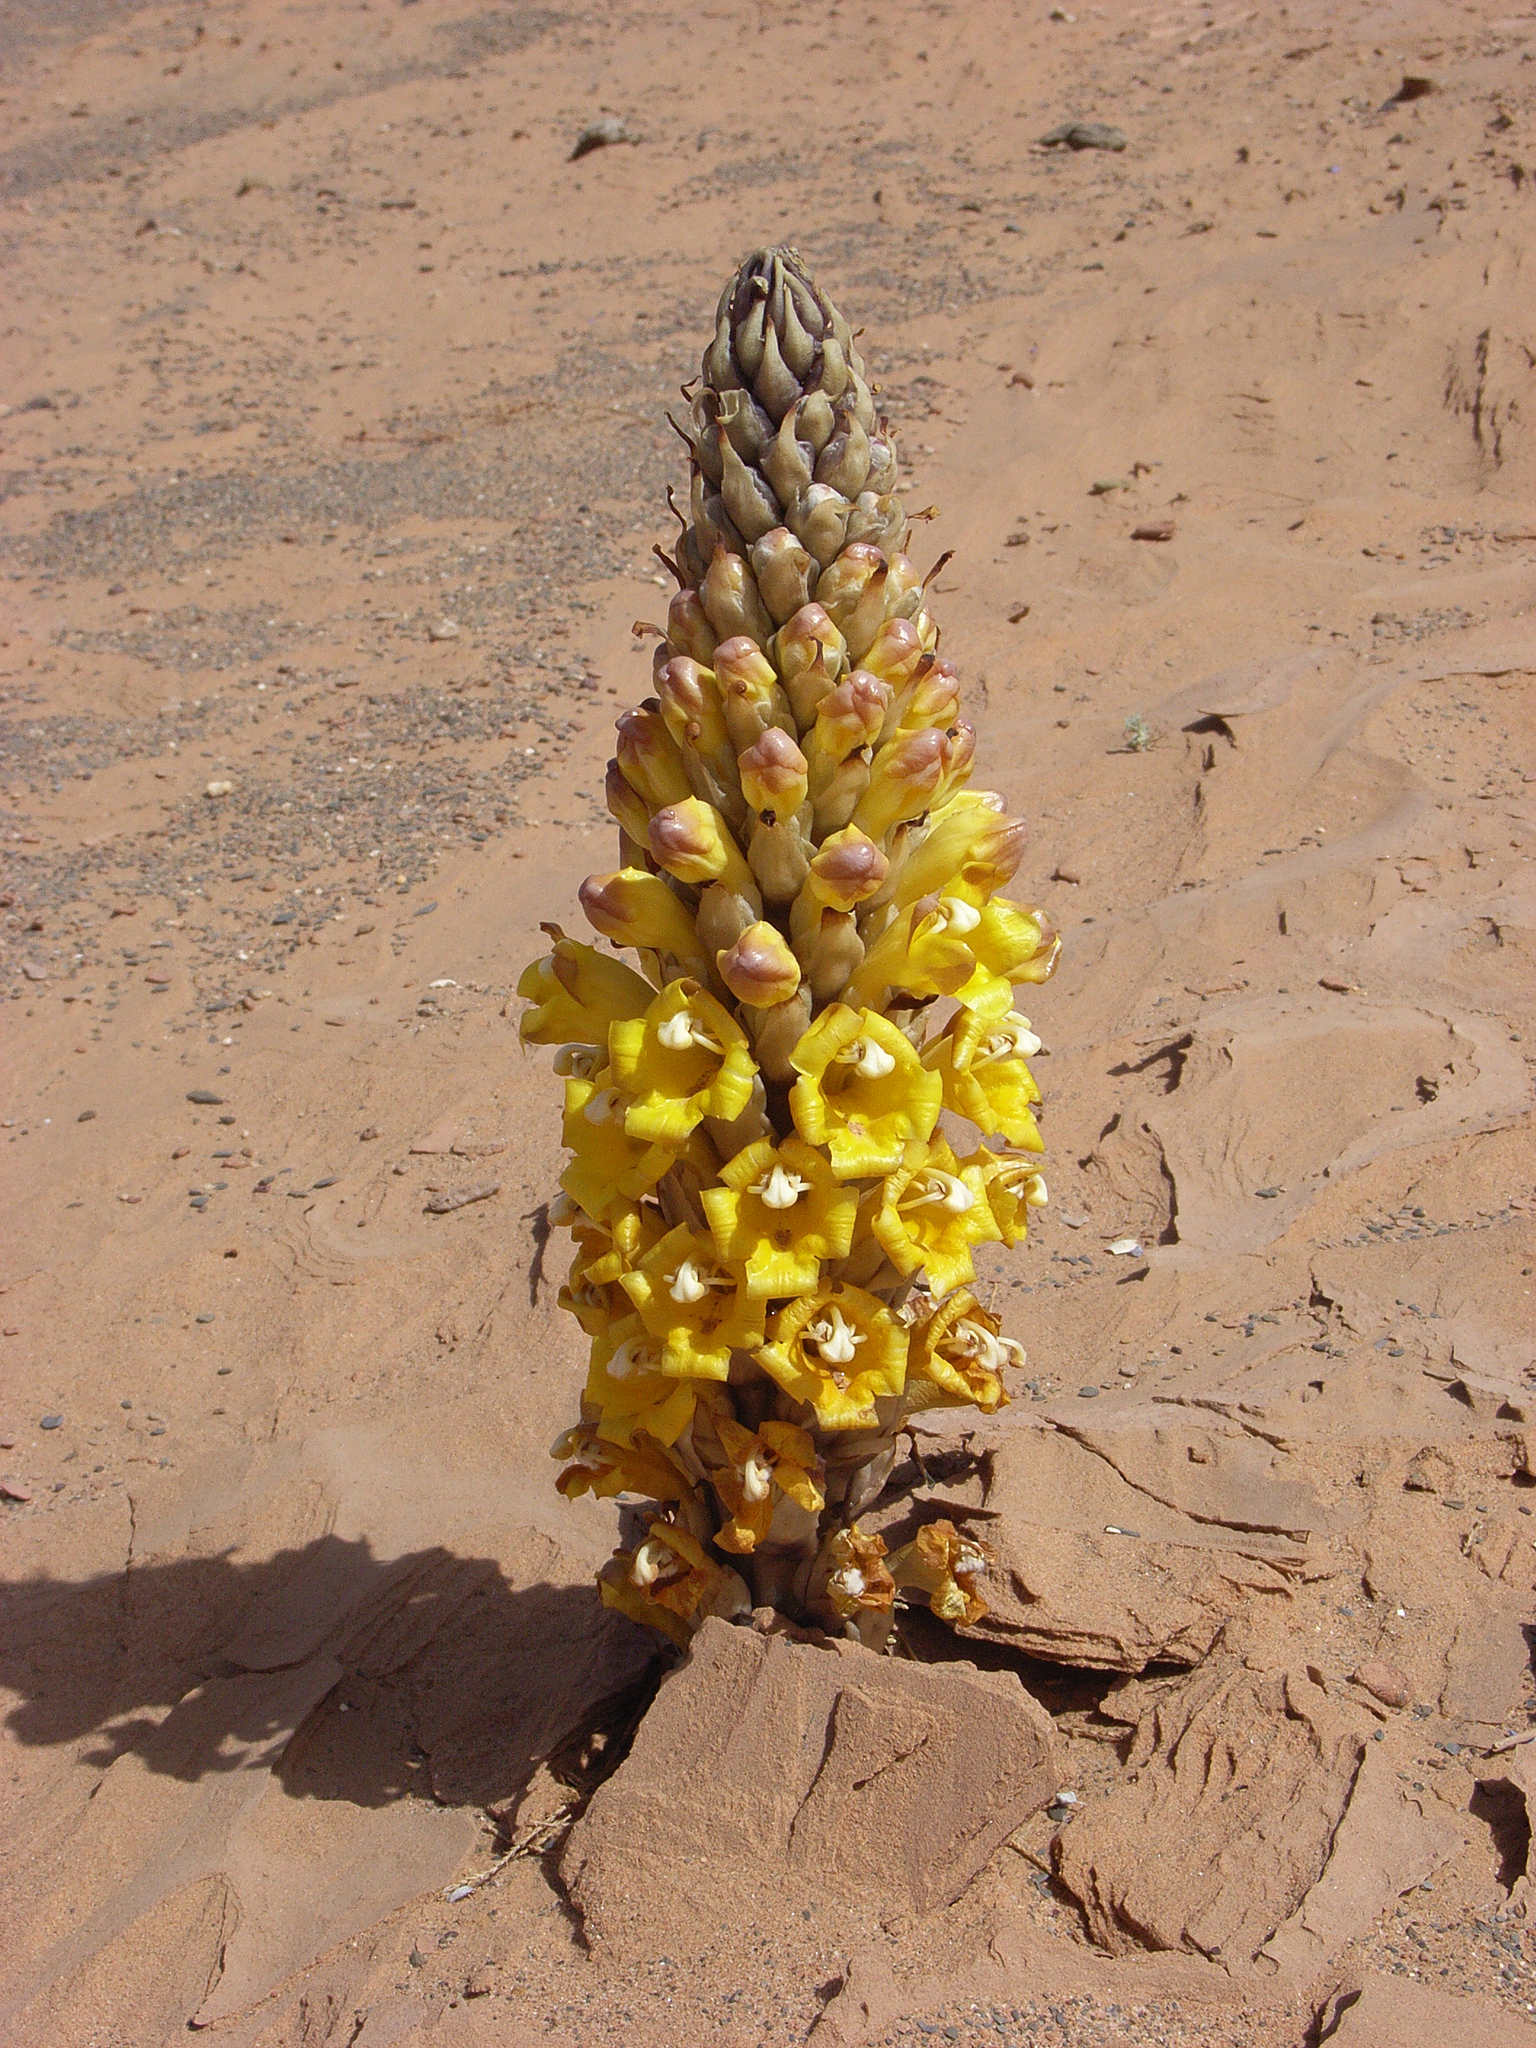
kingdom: Plantae
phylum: Tracheophyta
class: Magnoliopsida
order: Lamiales
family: Orobanchaceae
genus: Cistanche
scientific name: Cistanche
